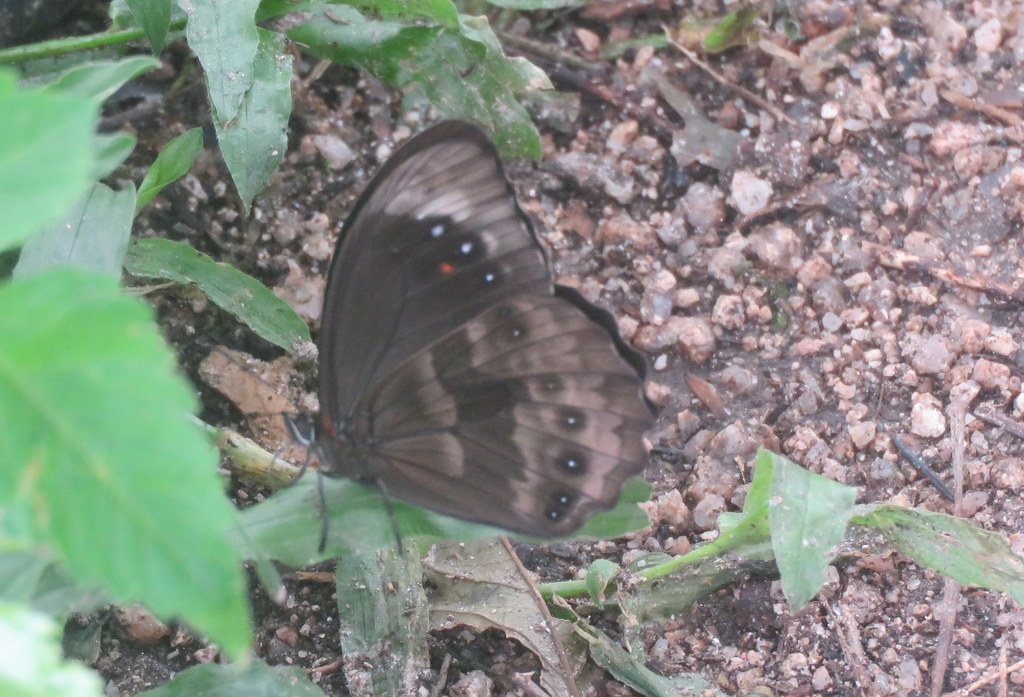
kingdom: Animalia
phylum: Arthropoda
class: Insecta
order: Lepidoptera
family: Nymphalidae
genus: Pronophila
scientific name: Pronophila unifasciata
